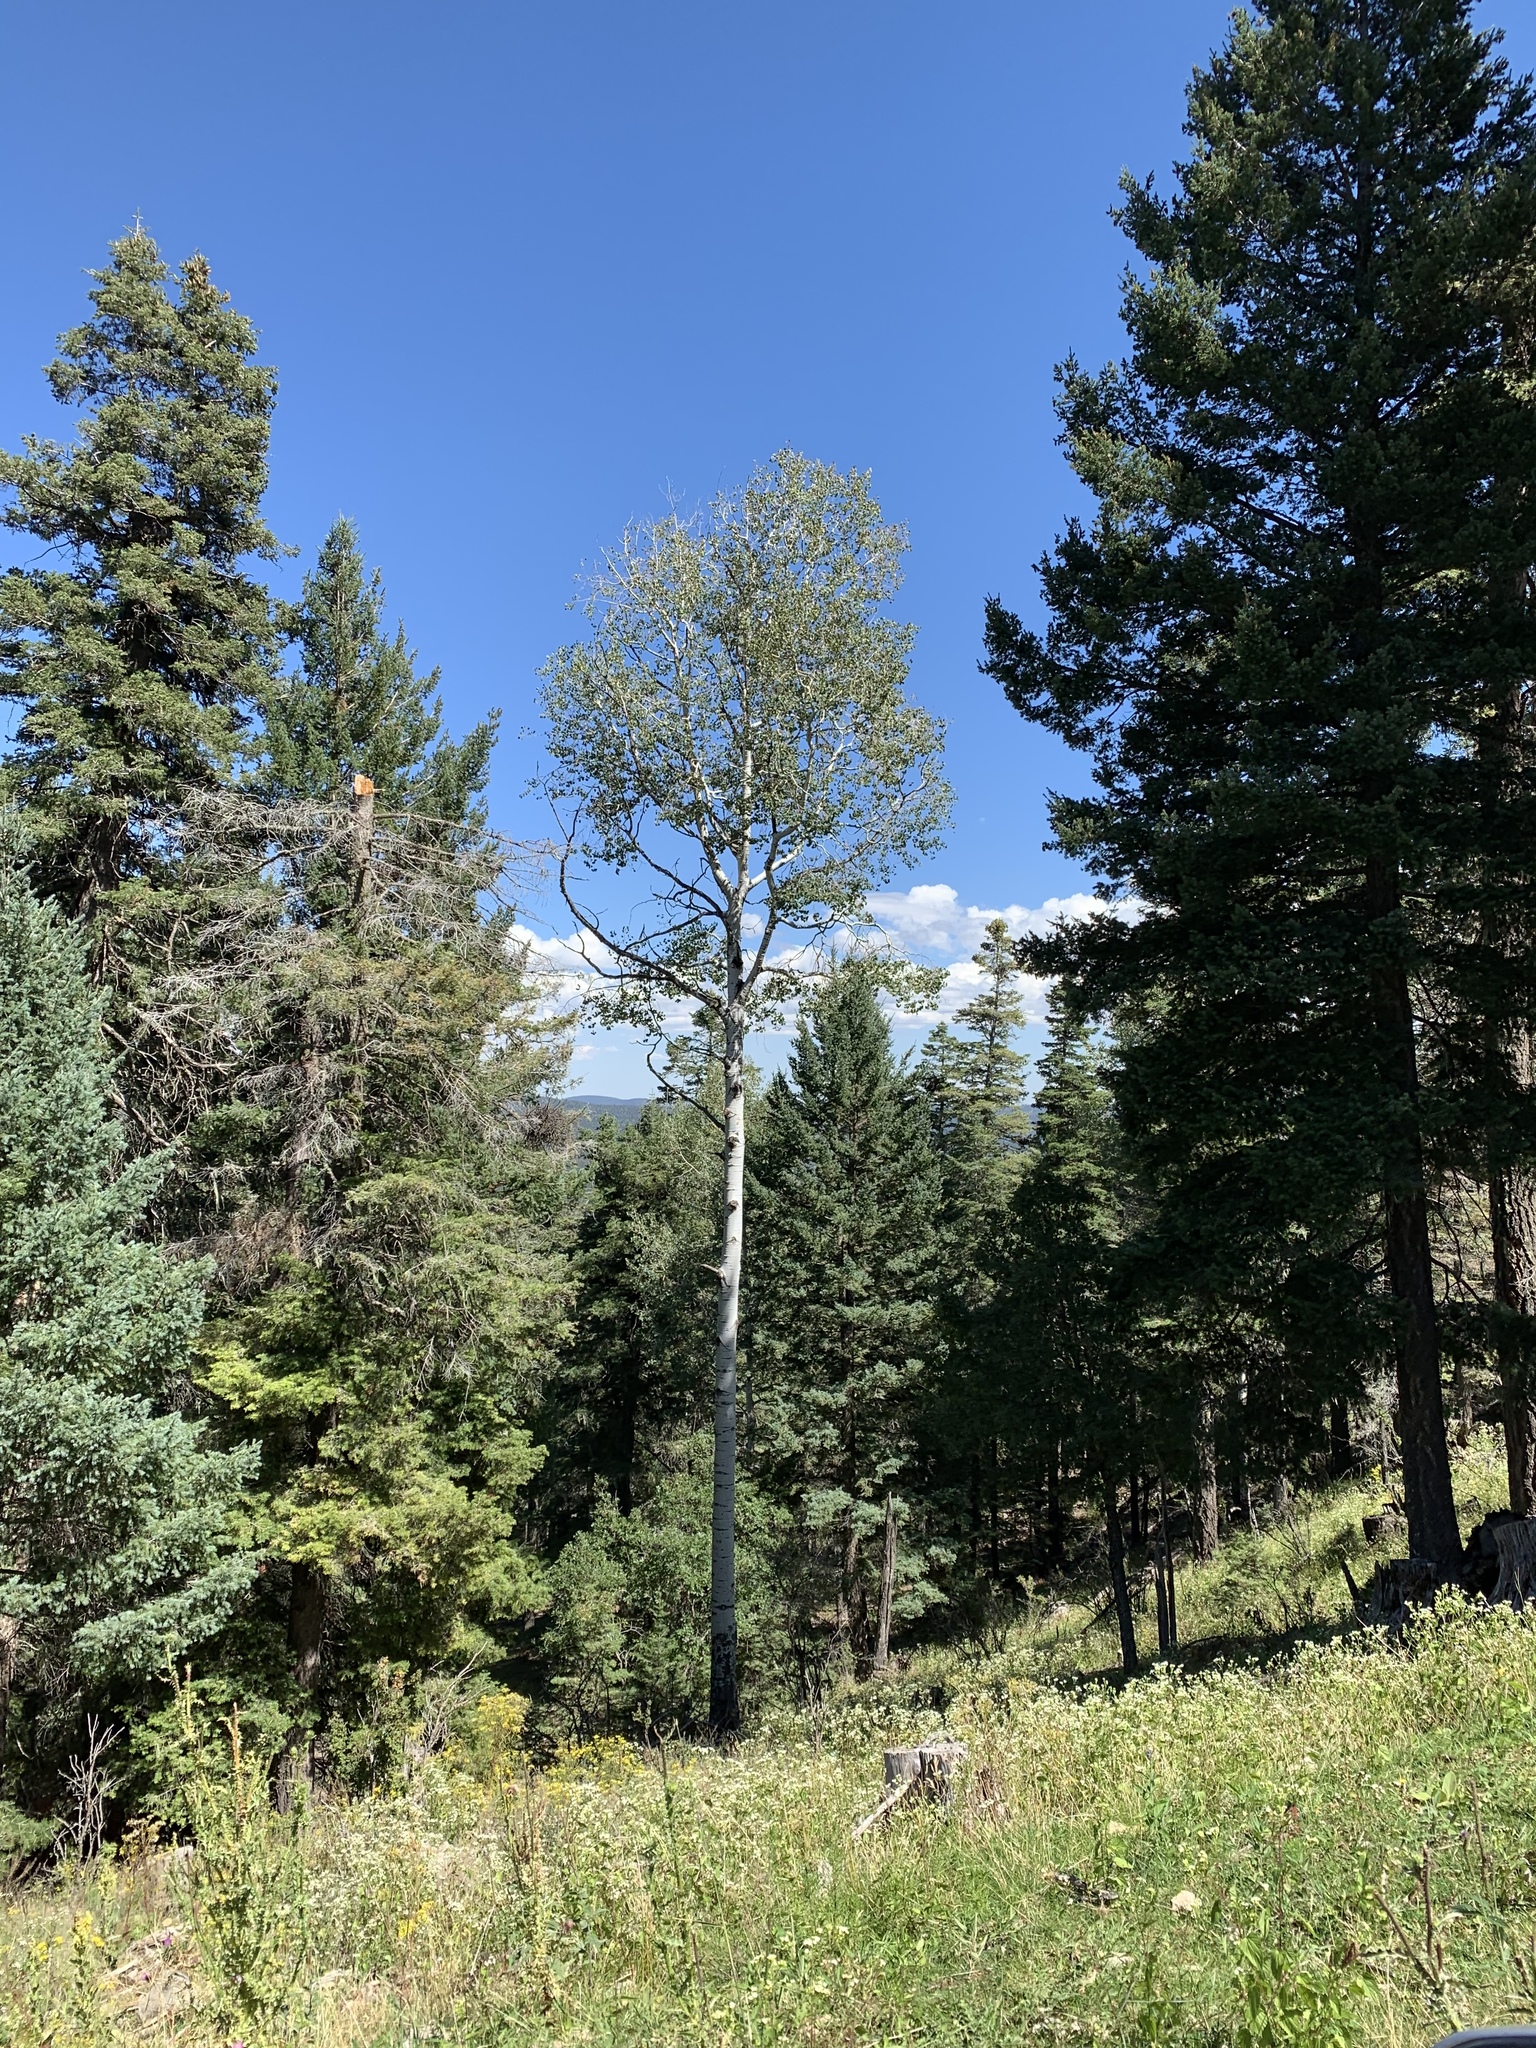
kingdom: Plantae
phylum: Tracheophyta
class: Magnoliopsida
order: Malpighiales
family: Salicaceae
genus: Populus
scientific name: Populus tremuloides
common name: Quaking aspen
